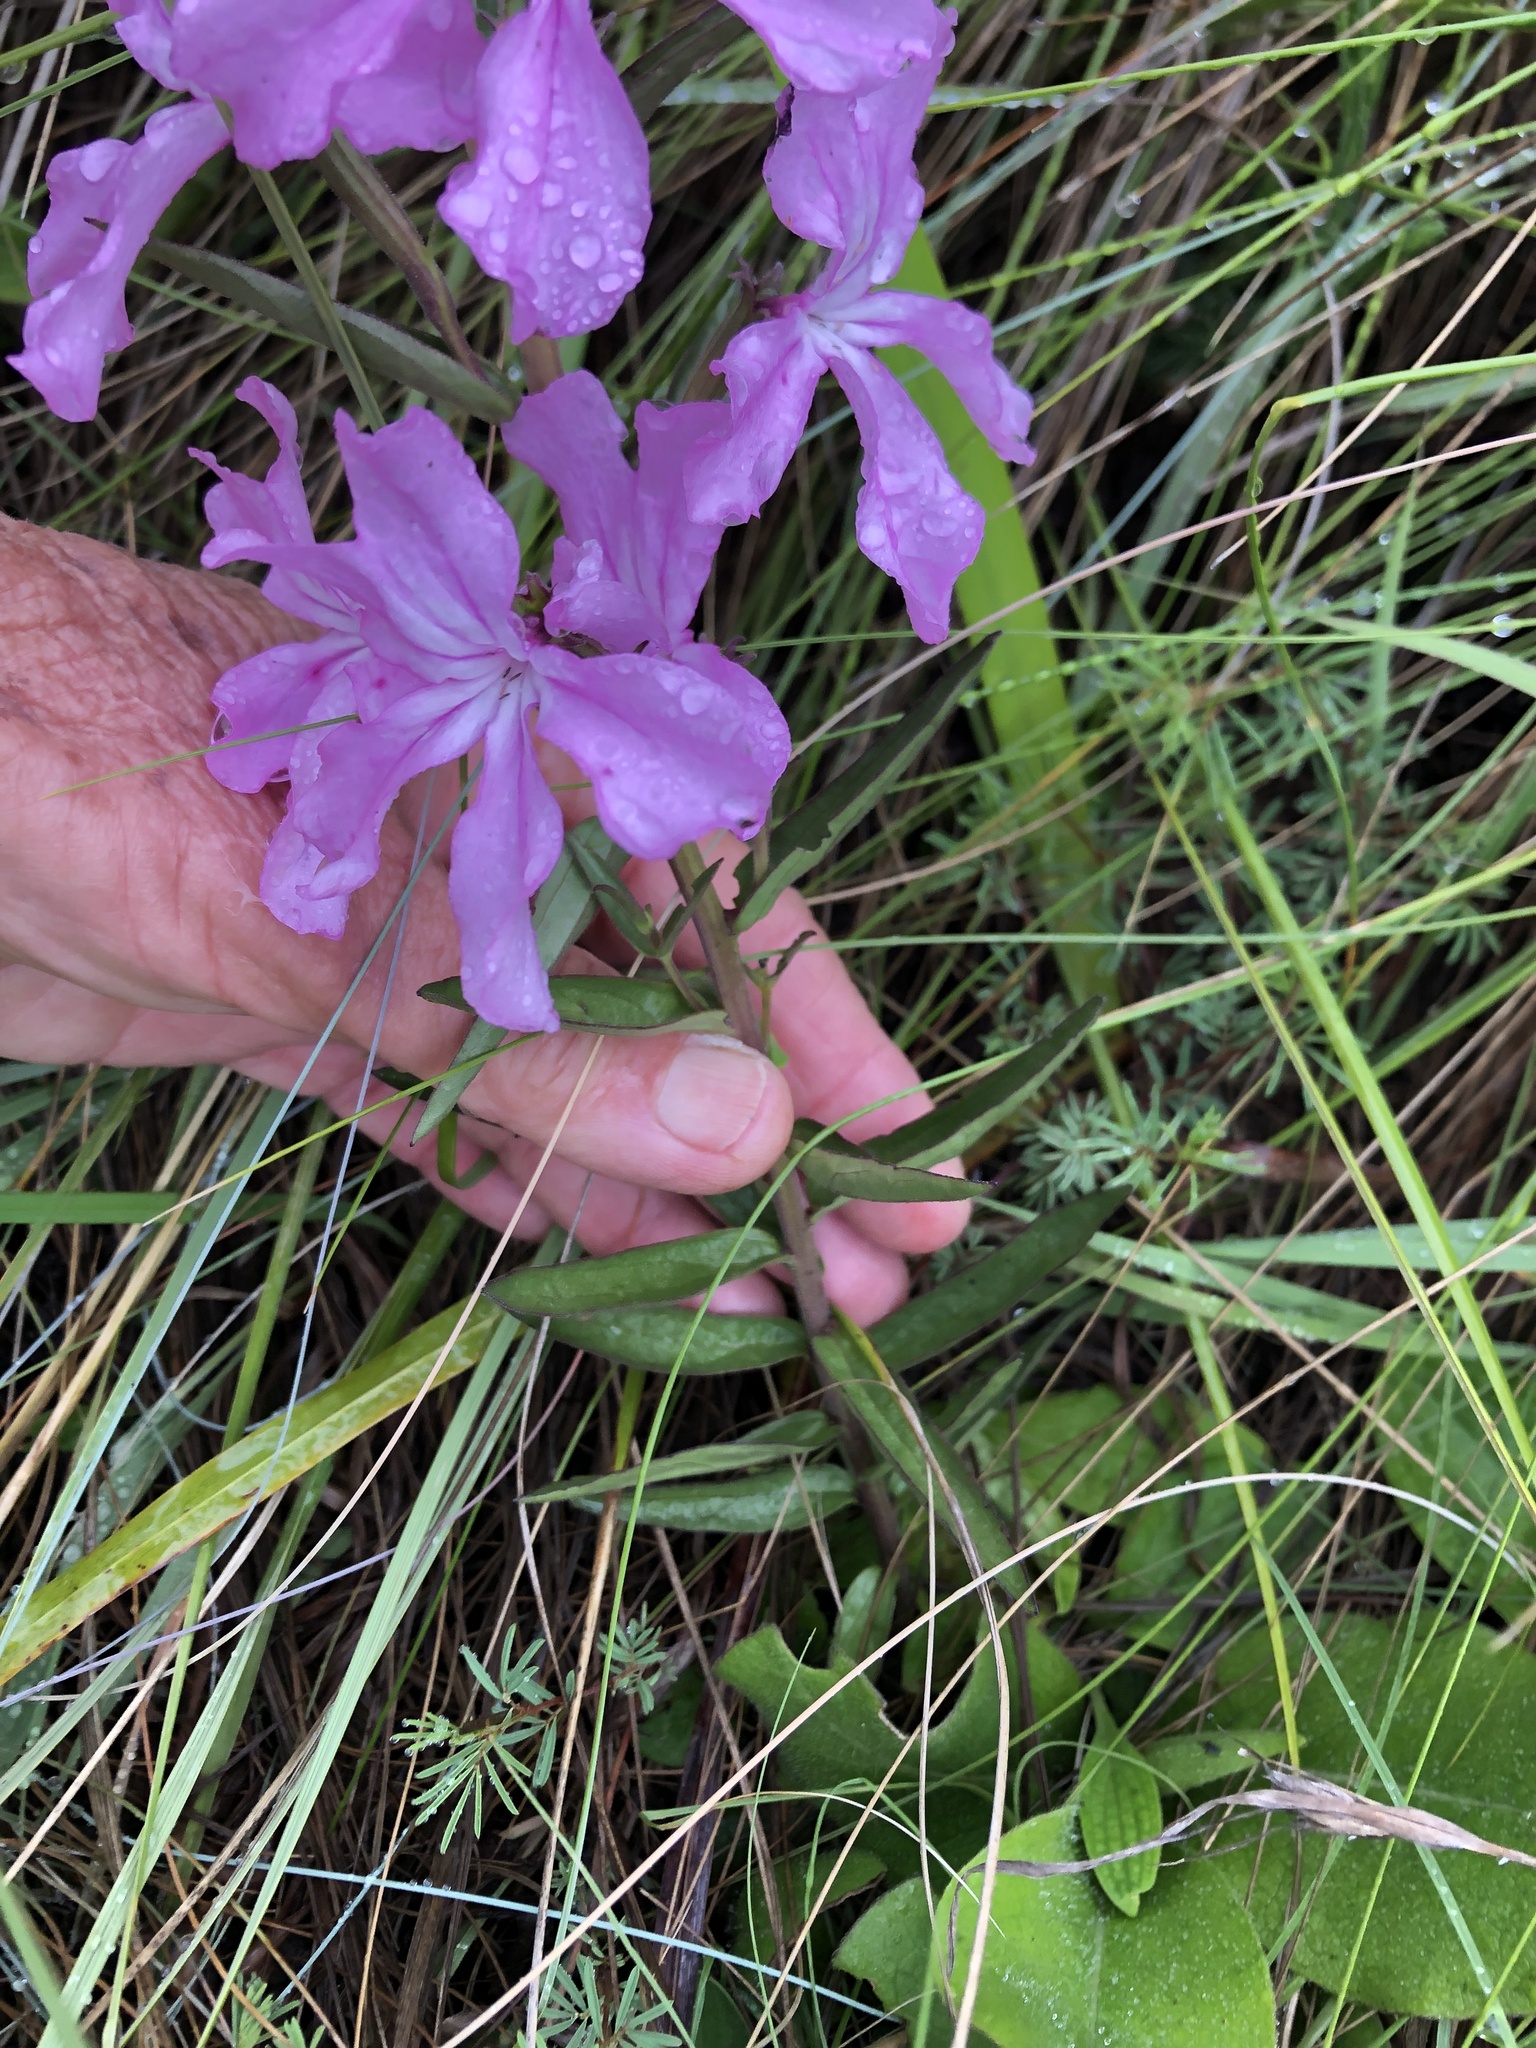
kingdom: Plantae
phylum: Tracheophyta
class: Magnoliopsida
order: Lamiales
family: Orobanchaceae
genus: Cycnium
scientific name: Cycnium racemosum
